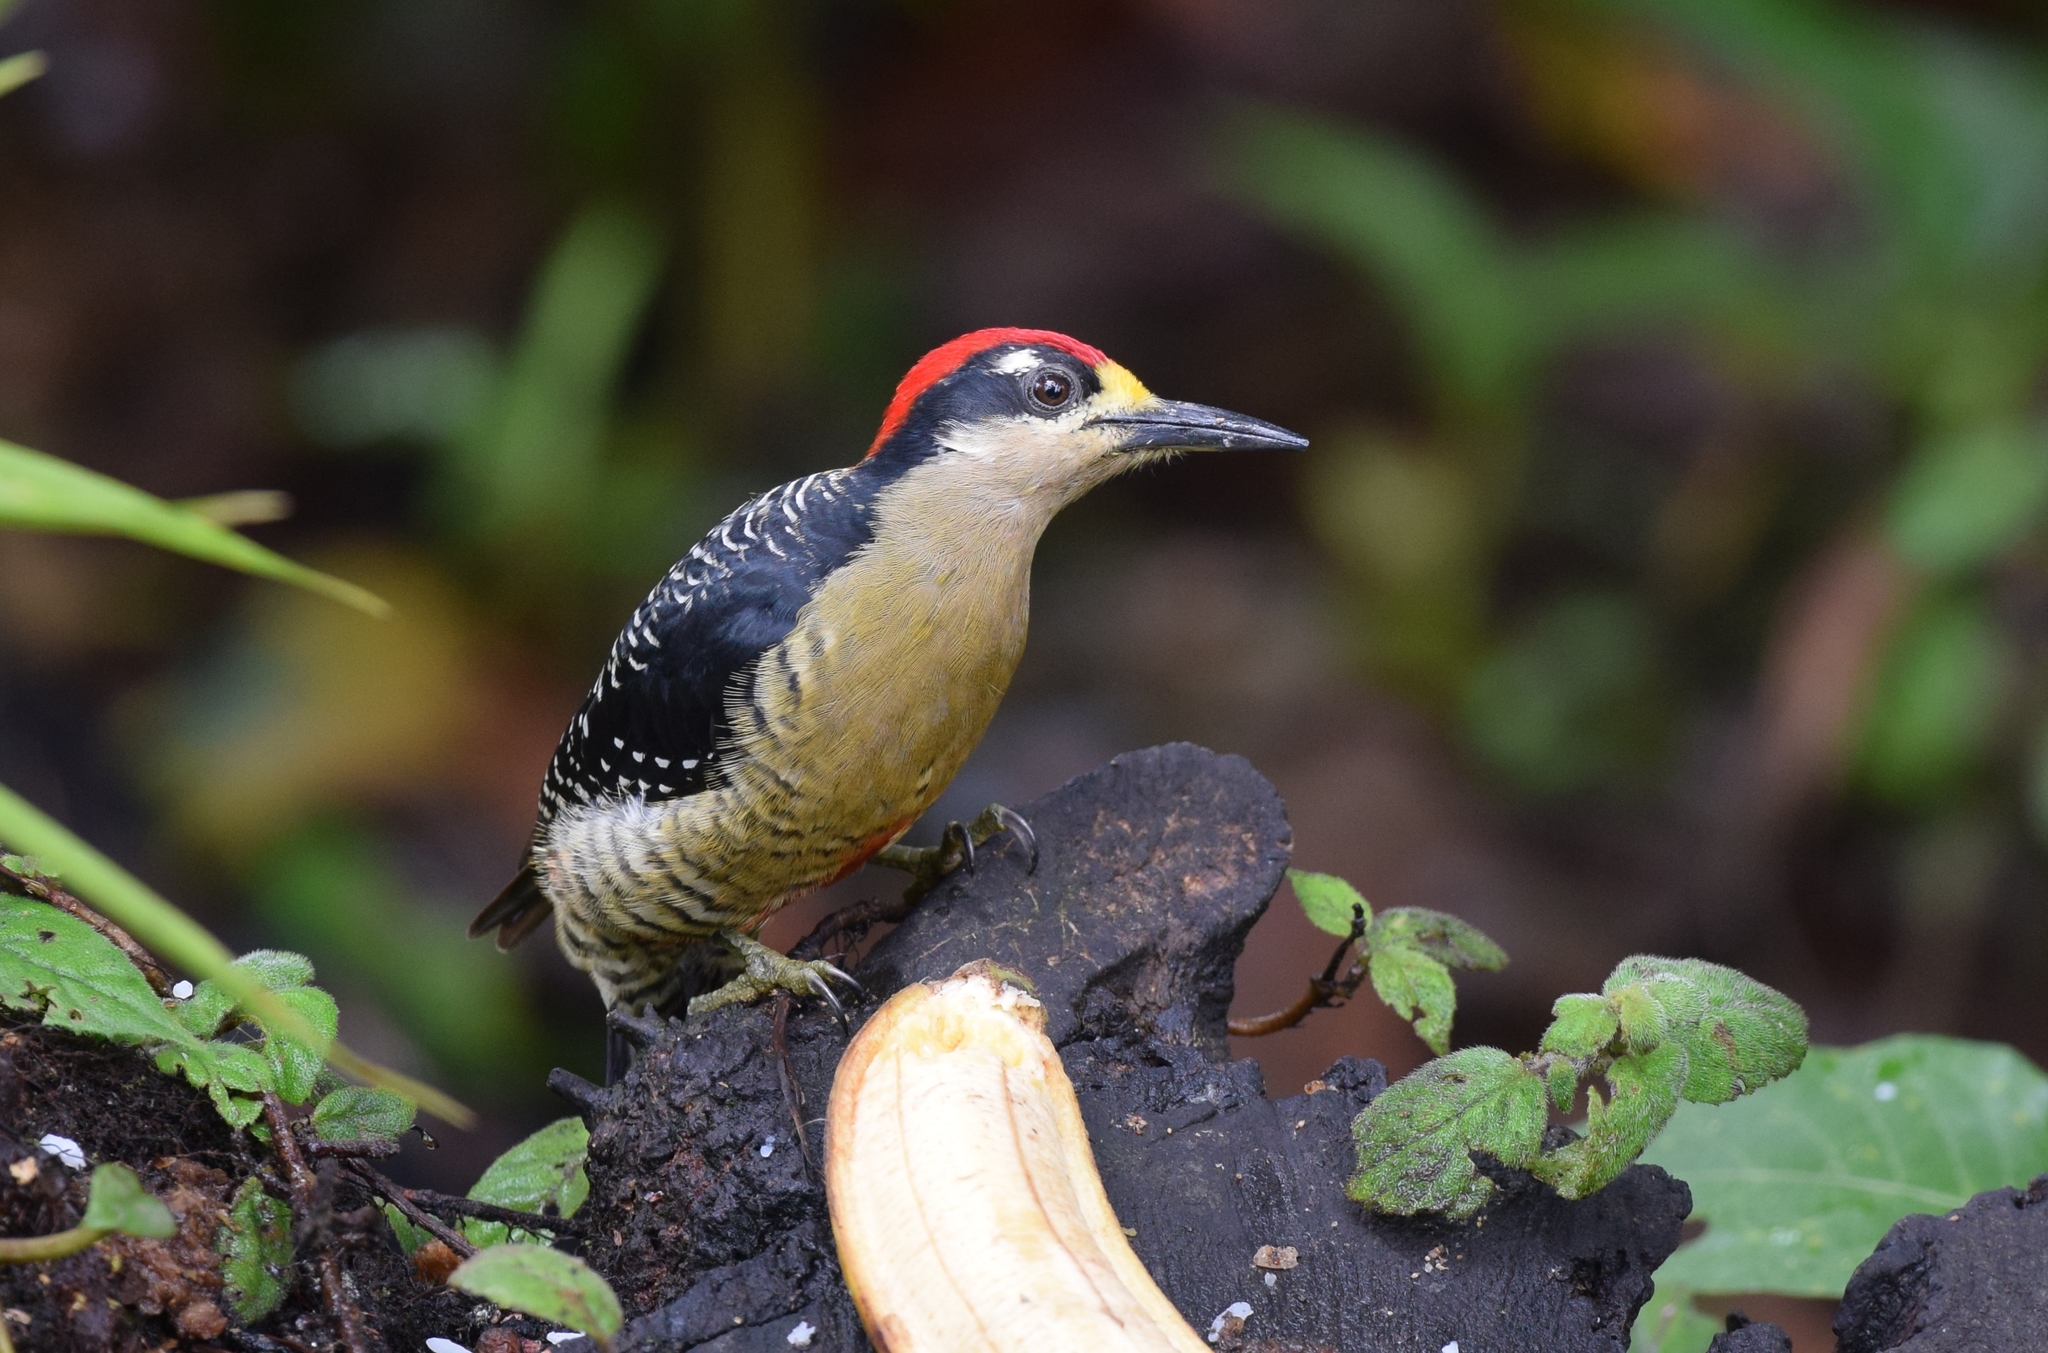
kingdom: Animalia
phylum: Chordata
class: Aves
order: Piciformes
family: Picidae
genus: Melanerpes
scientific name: Melanerpes pucherani
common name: Black-cheeked woodpecker
